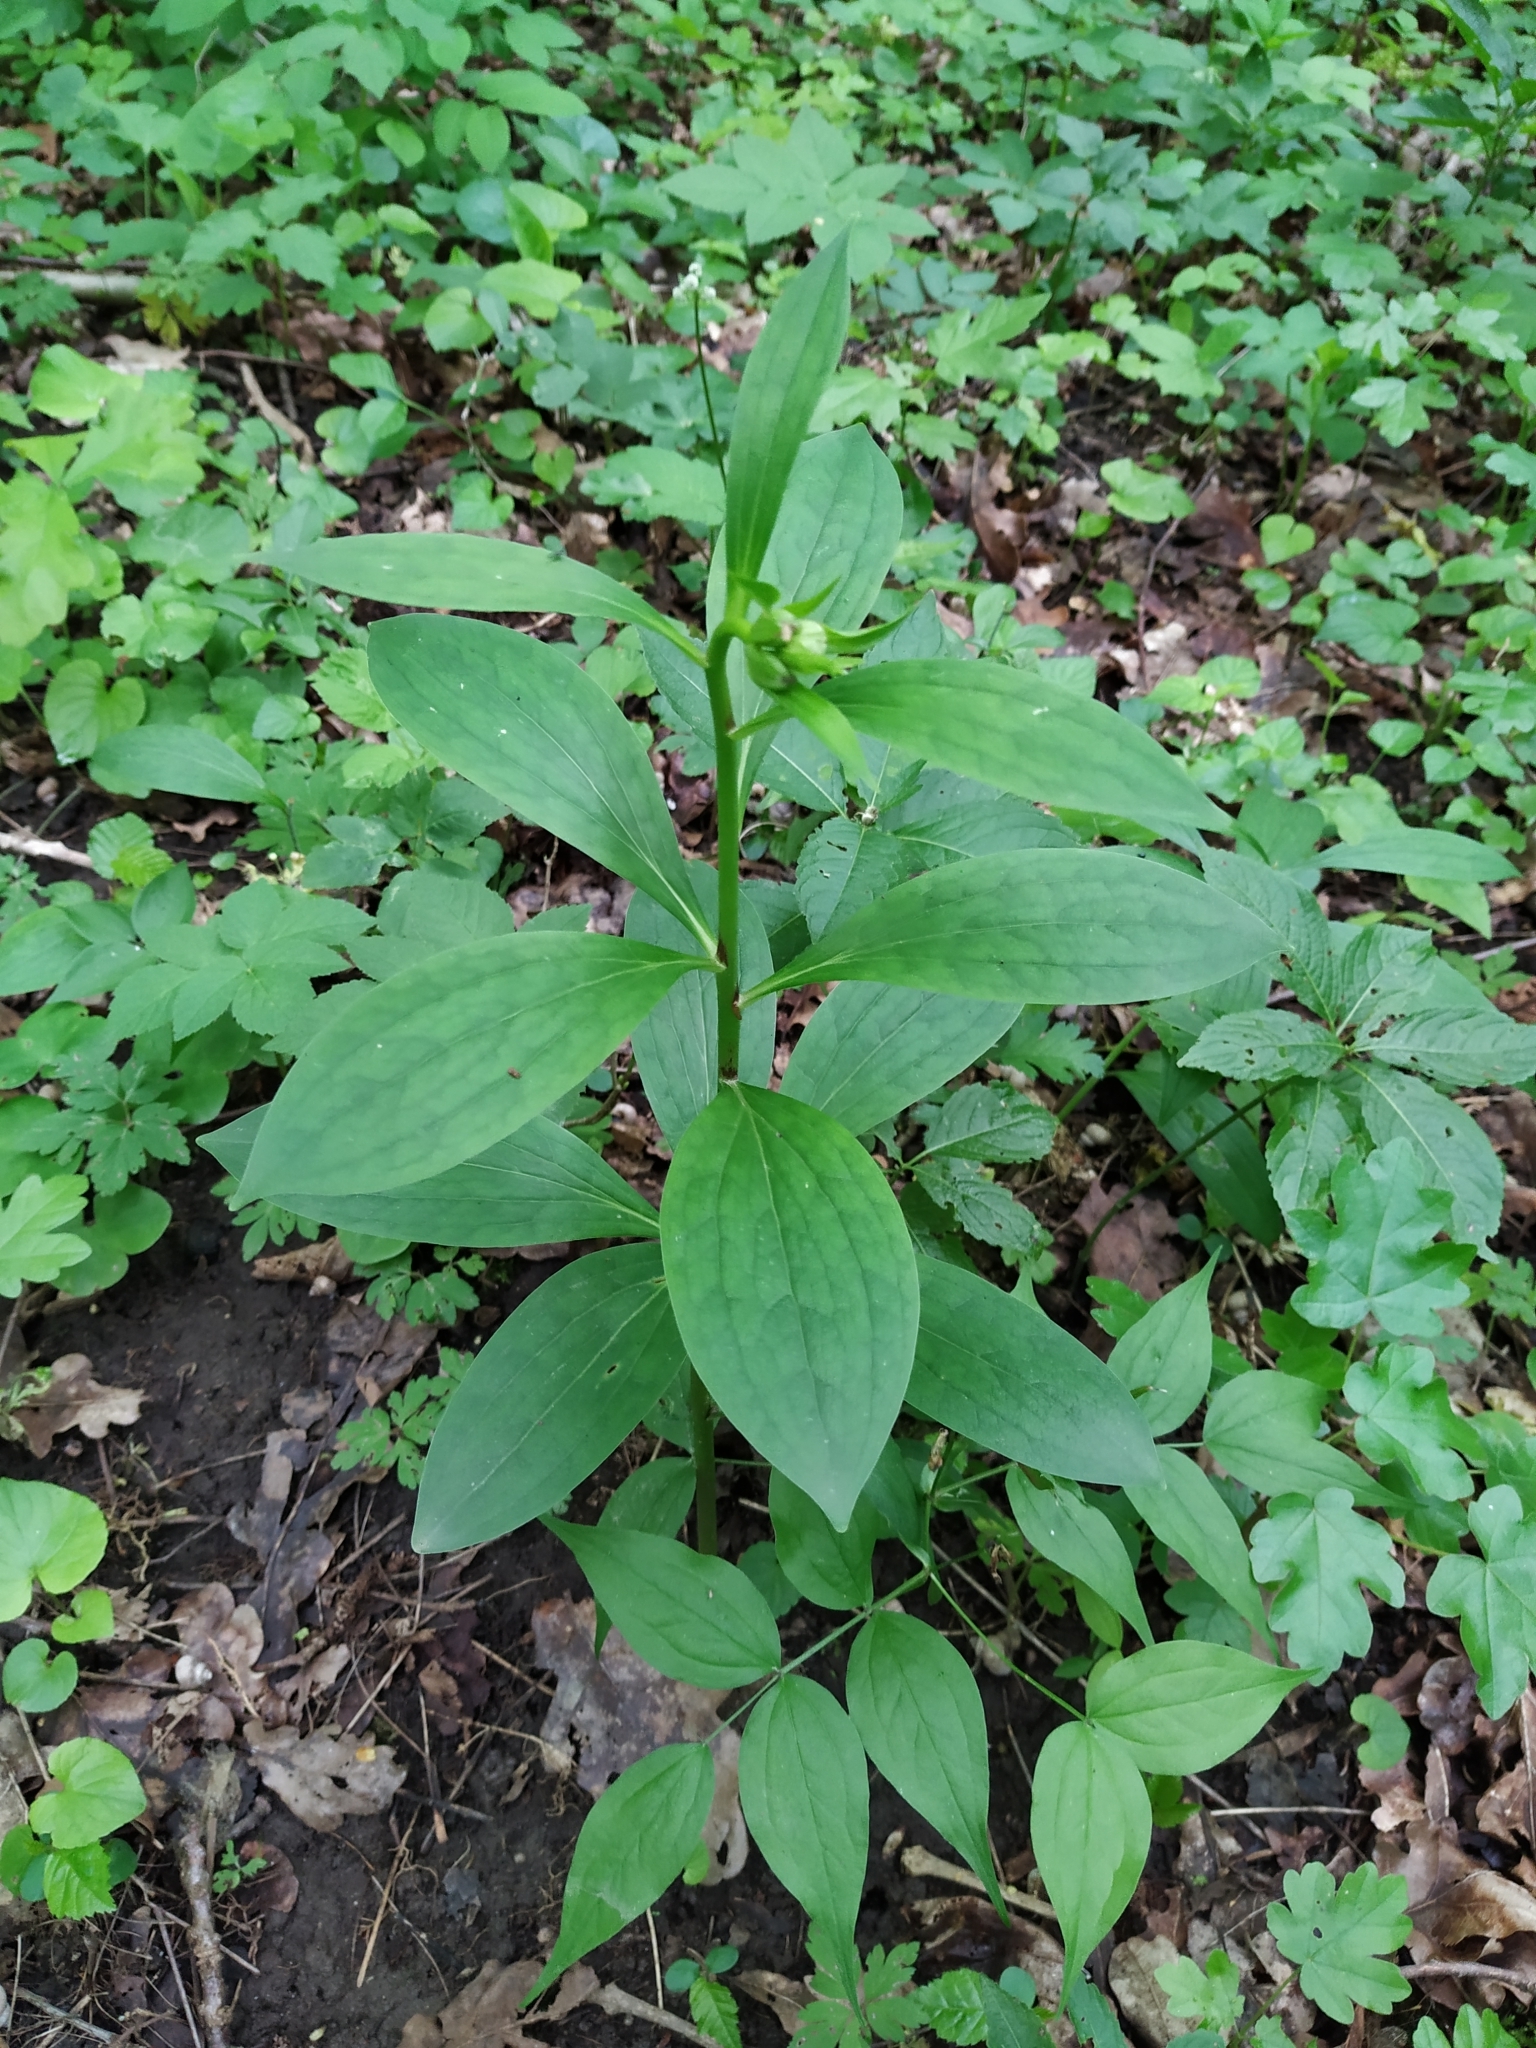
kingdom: Plantae
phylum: Tracheophyta
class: Liliopsida
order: Liliales
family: Liliaceae
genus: Lilium
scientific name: Lilium martagon
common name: Martagon lily
